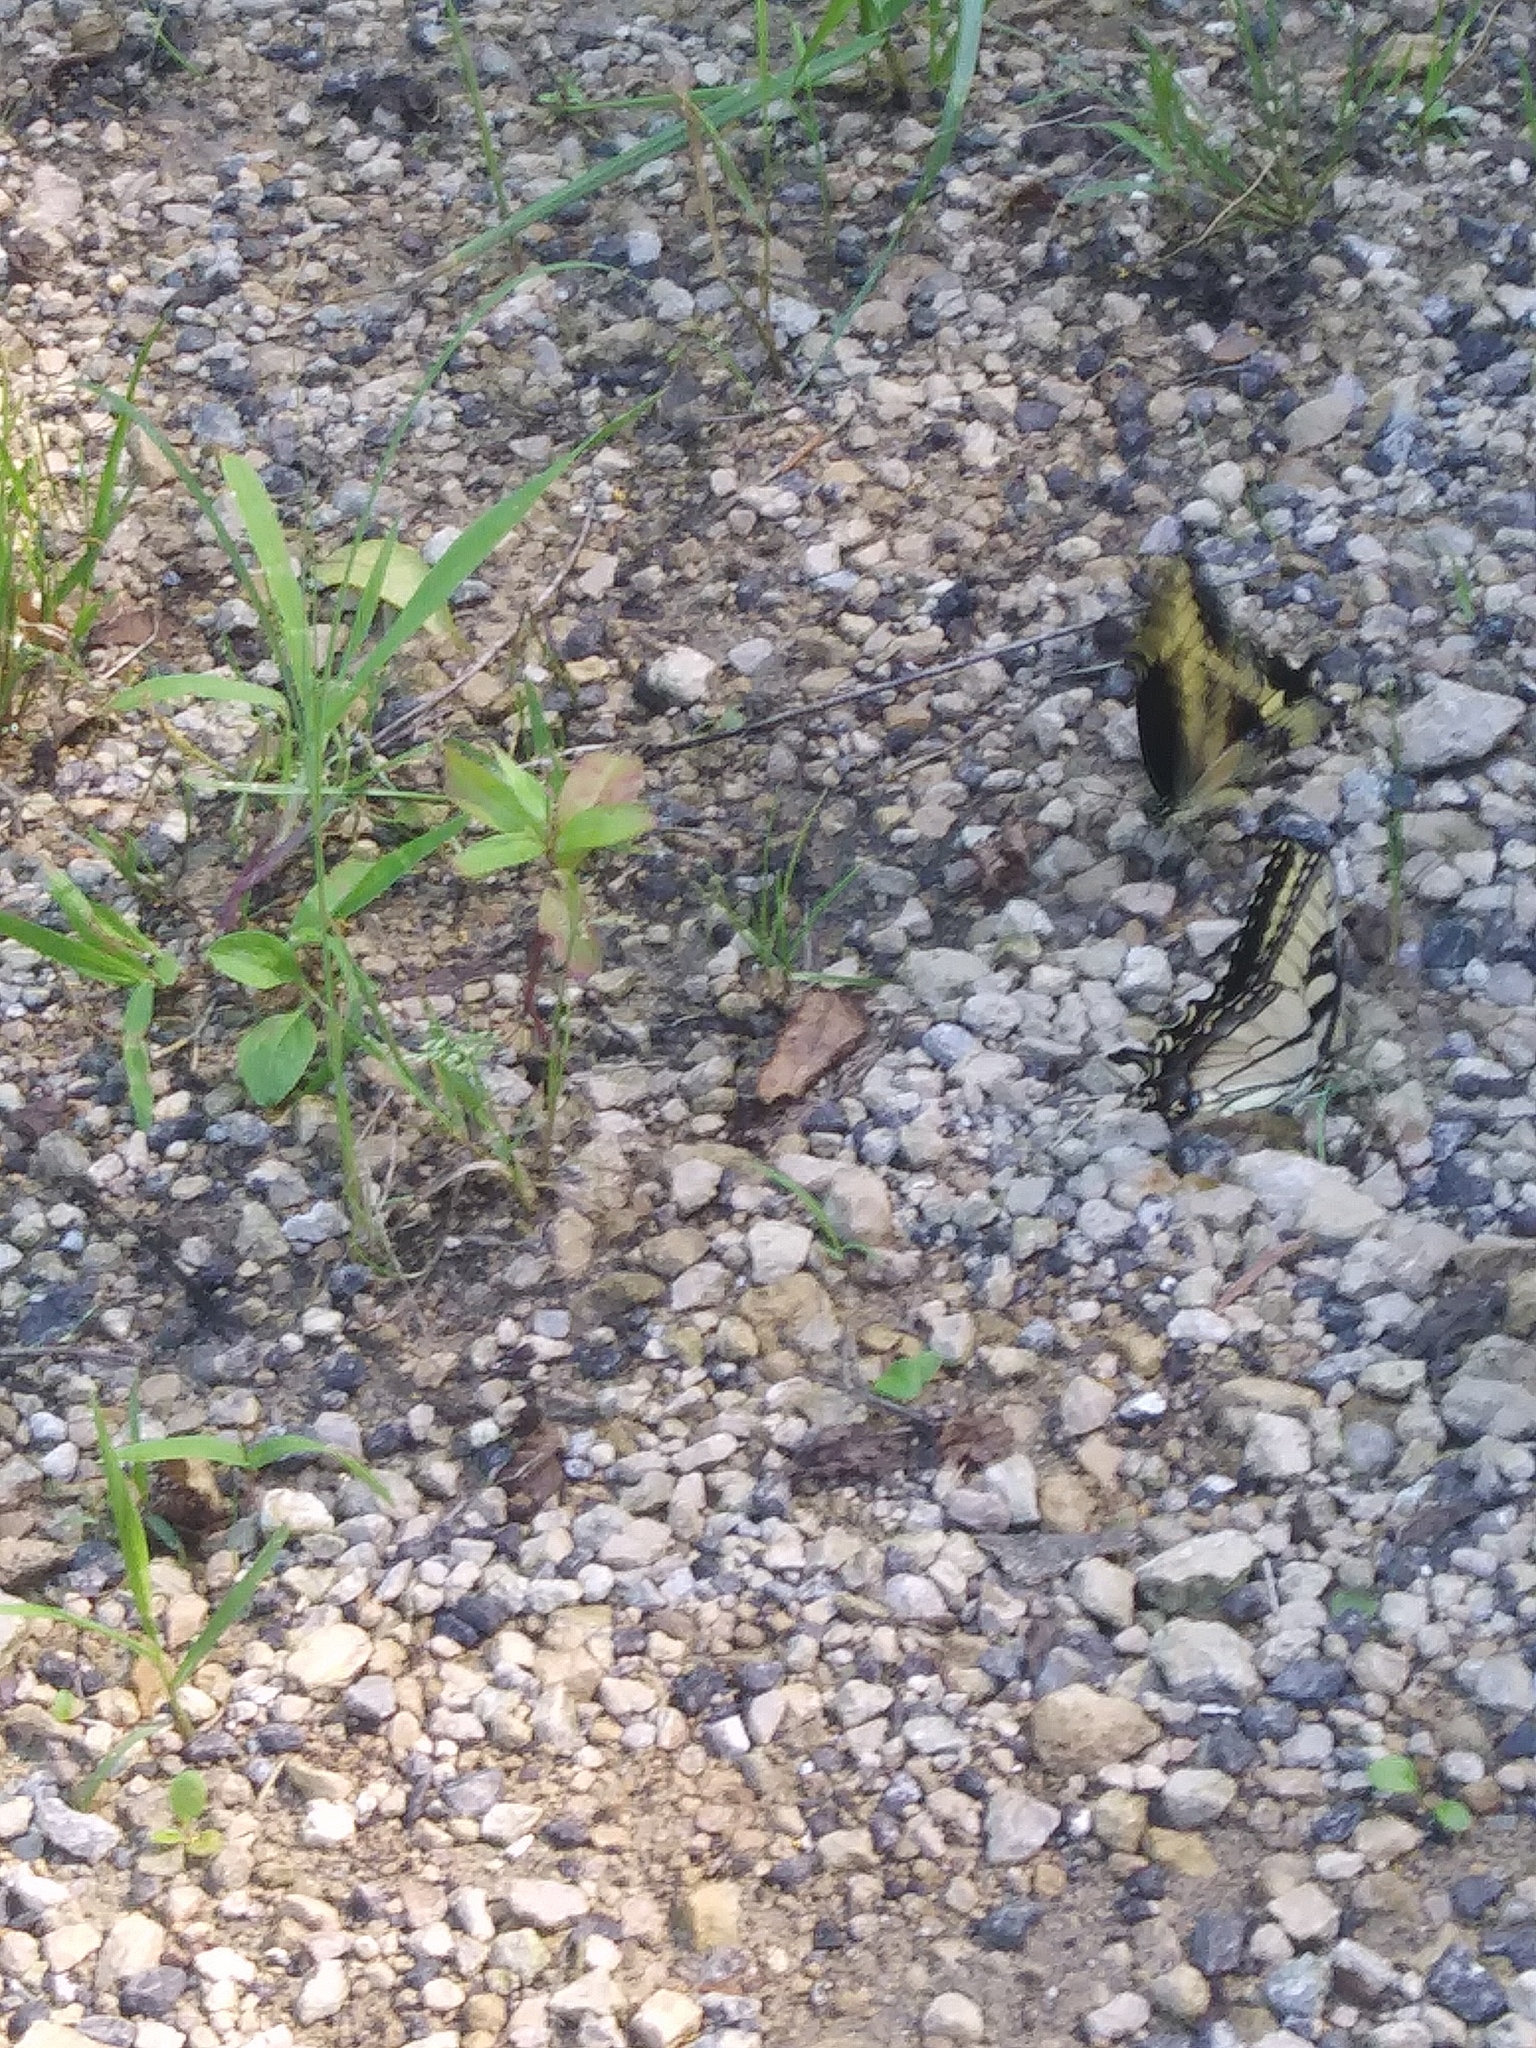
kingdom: Animalia
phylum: Arthropoda
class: Insecta
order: Lepidoptera
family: Papilionidae
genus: Papilio
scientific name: Papilio cresphontes
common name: Giant swallowtail
